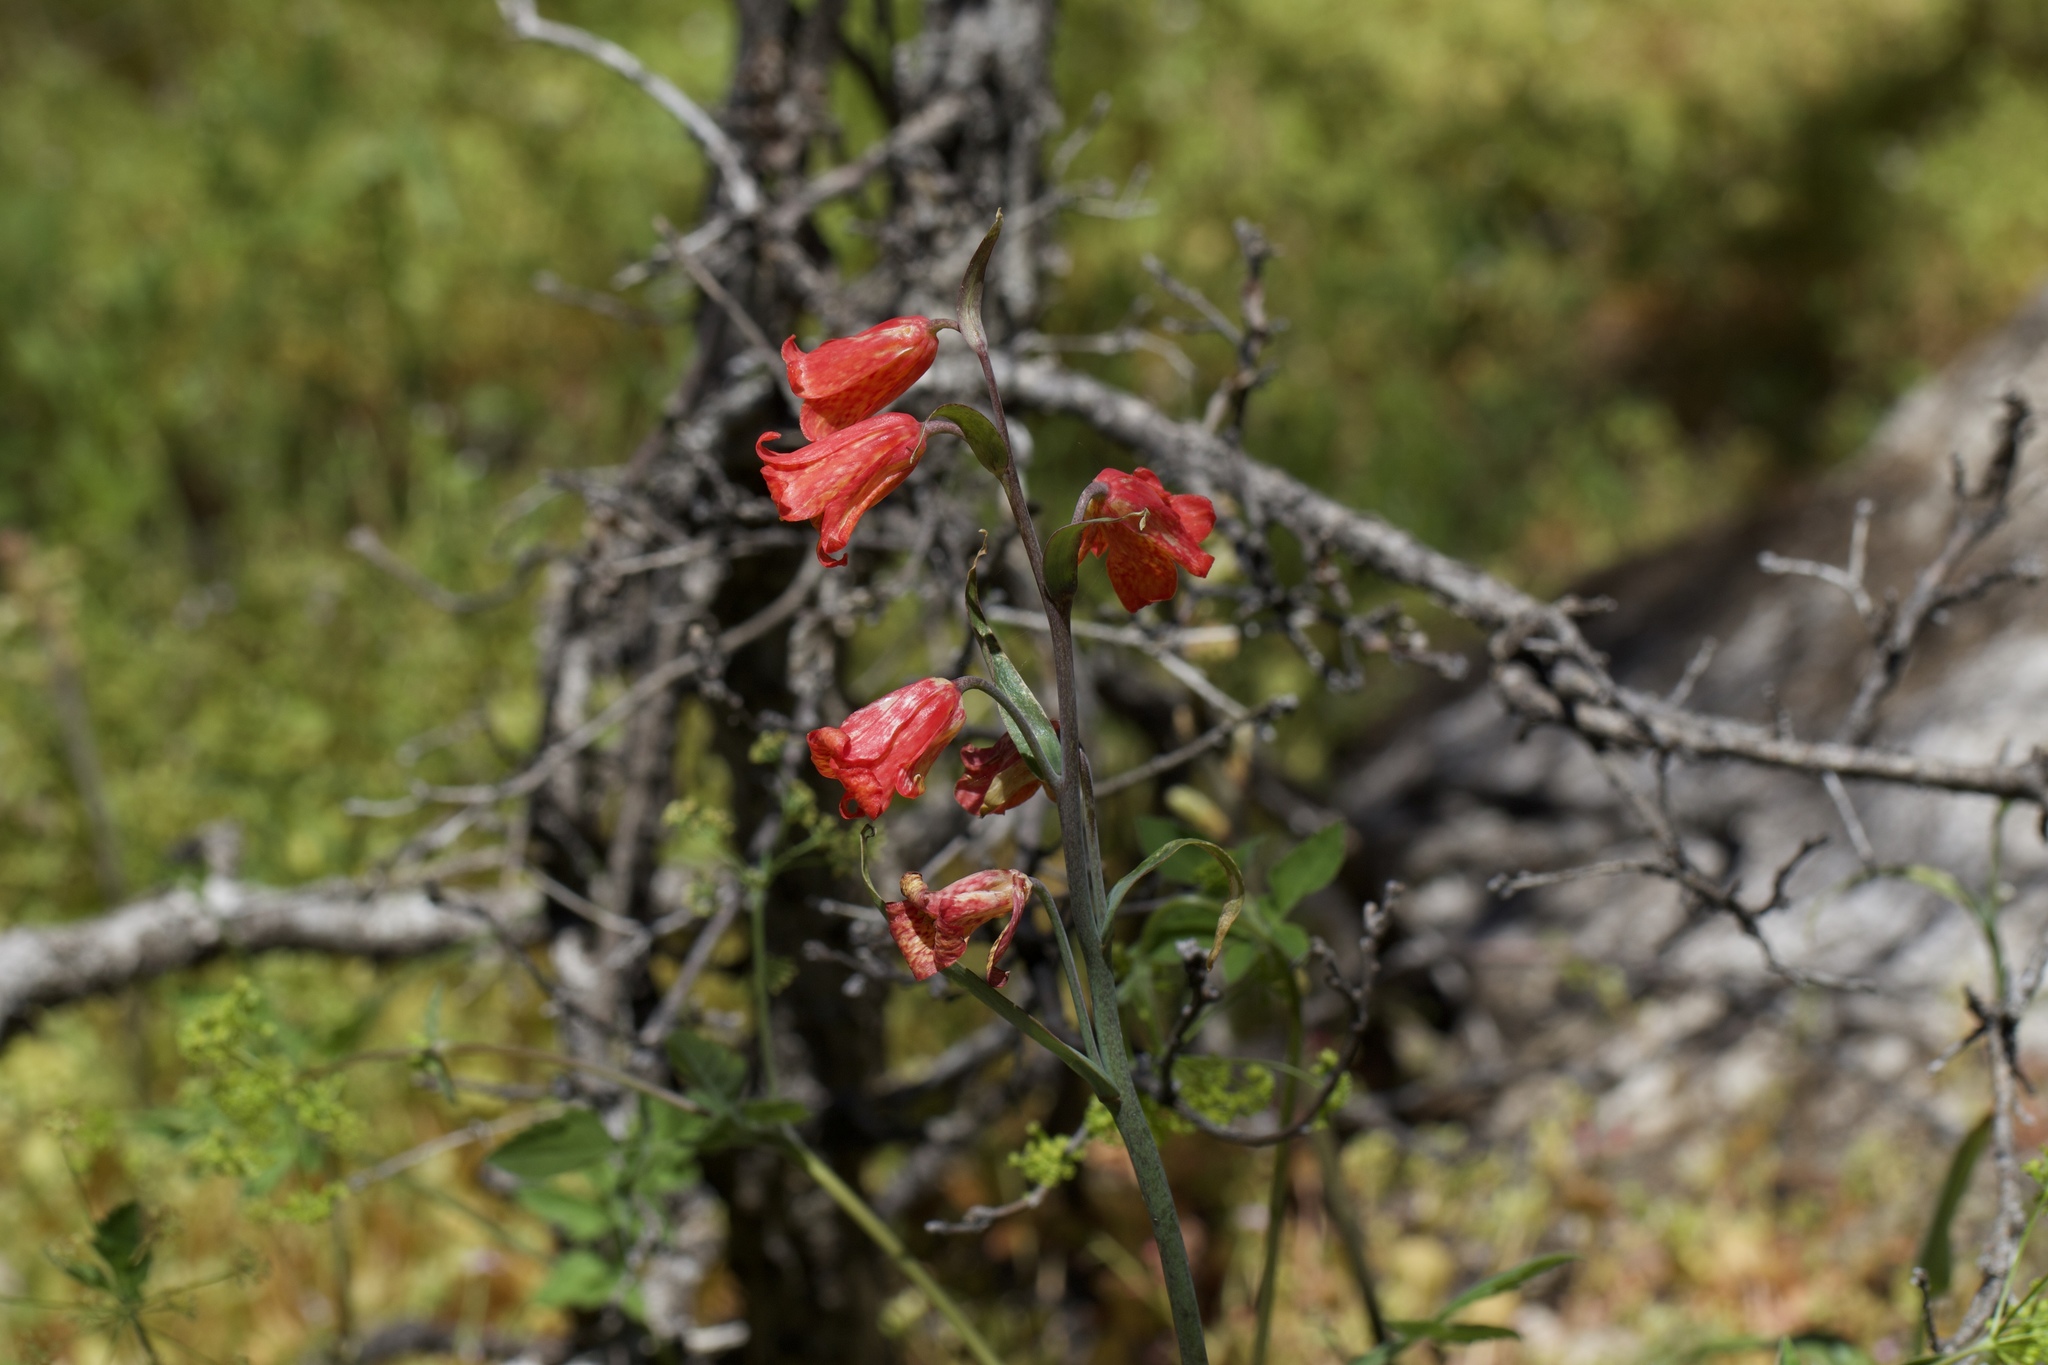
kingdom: Plantae
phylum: Tracheophyta
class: Liliopsida
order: Liliales
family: Liliaceae
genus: Fritillaria
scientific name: Fritillaria recurva
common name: Scarlet fritillary
